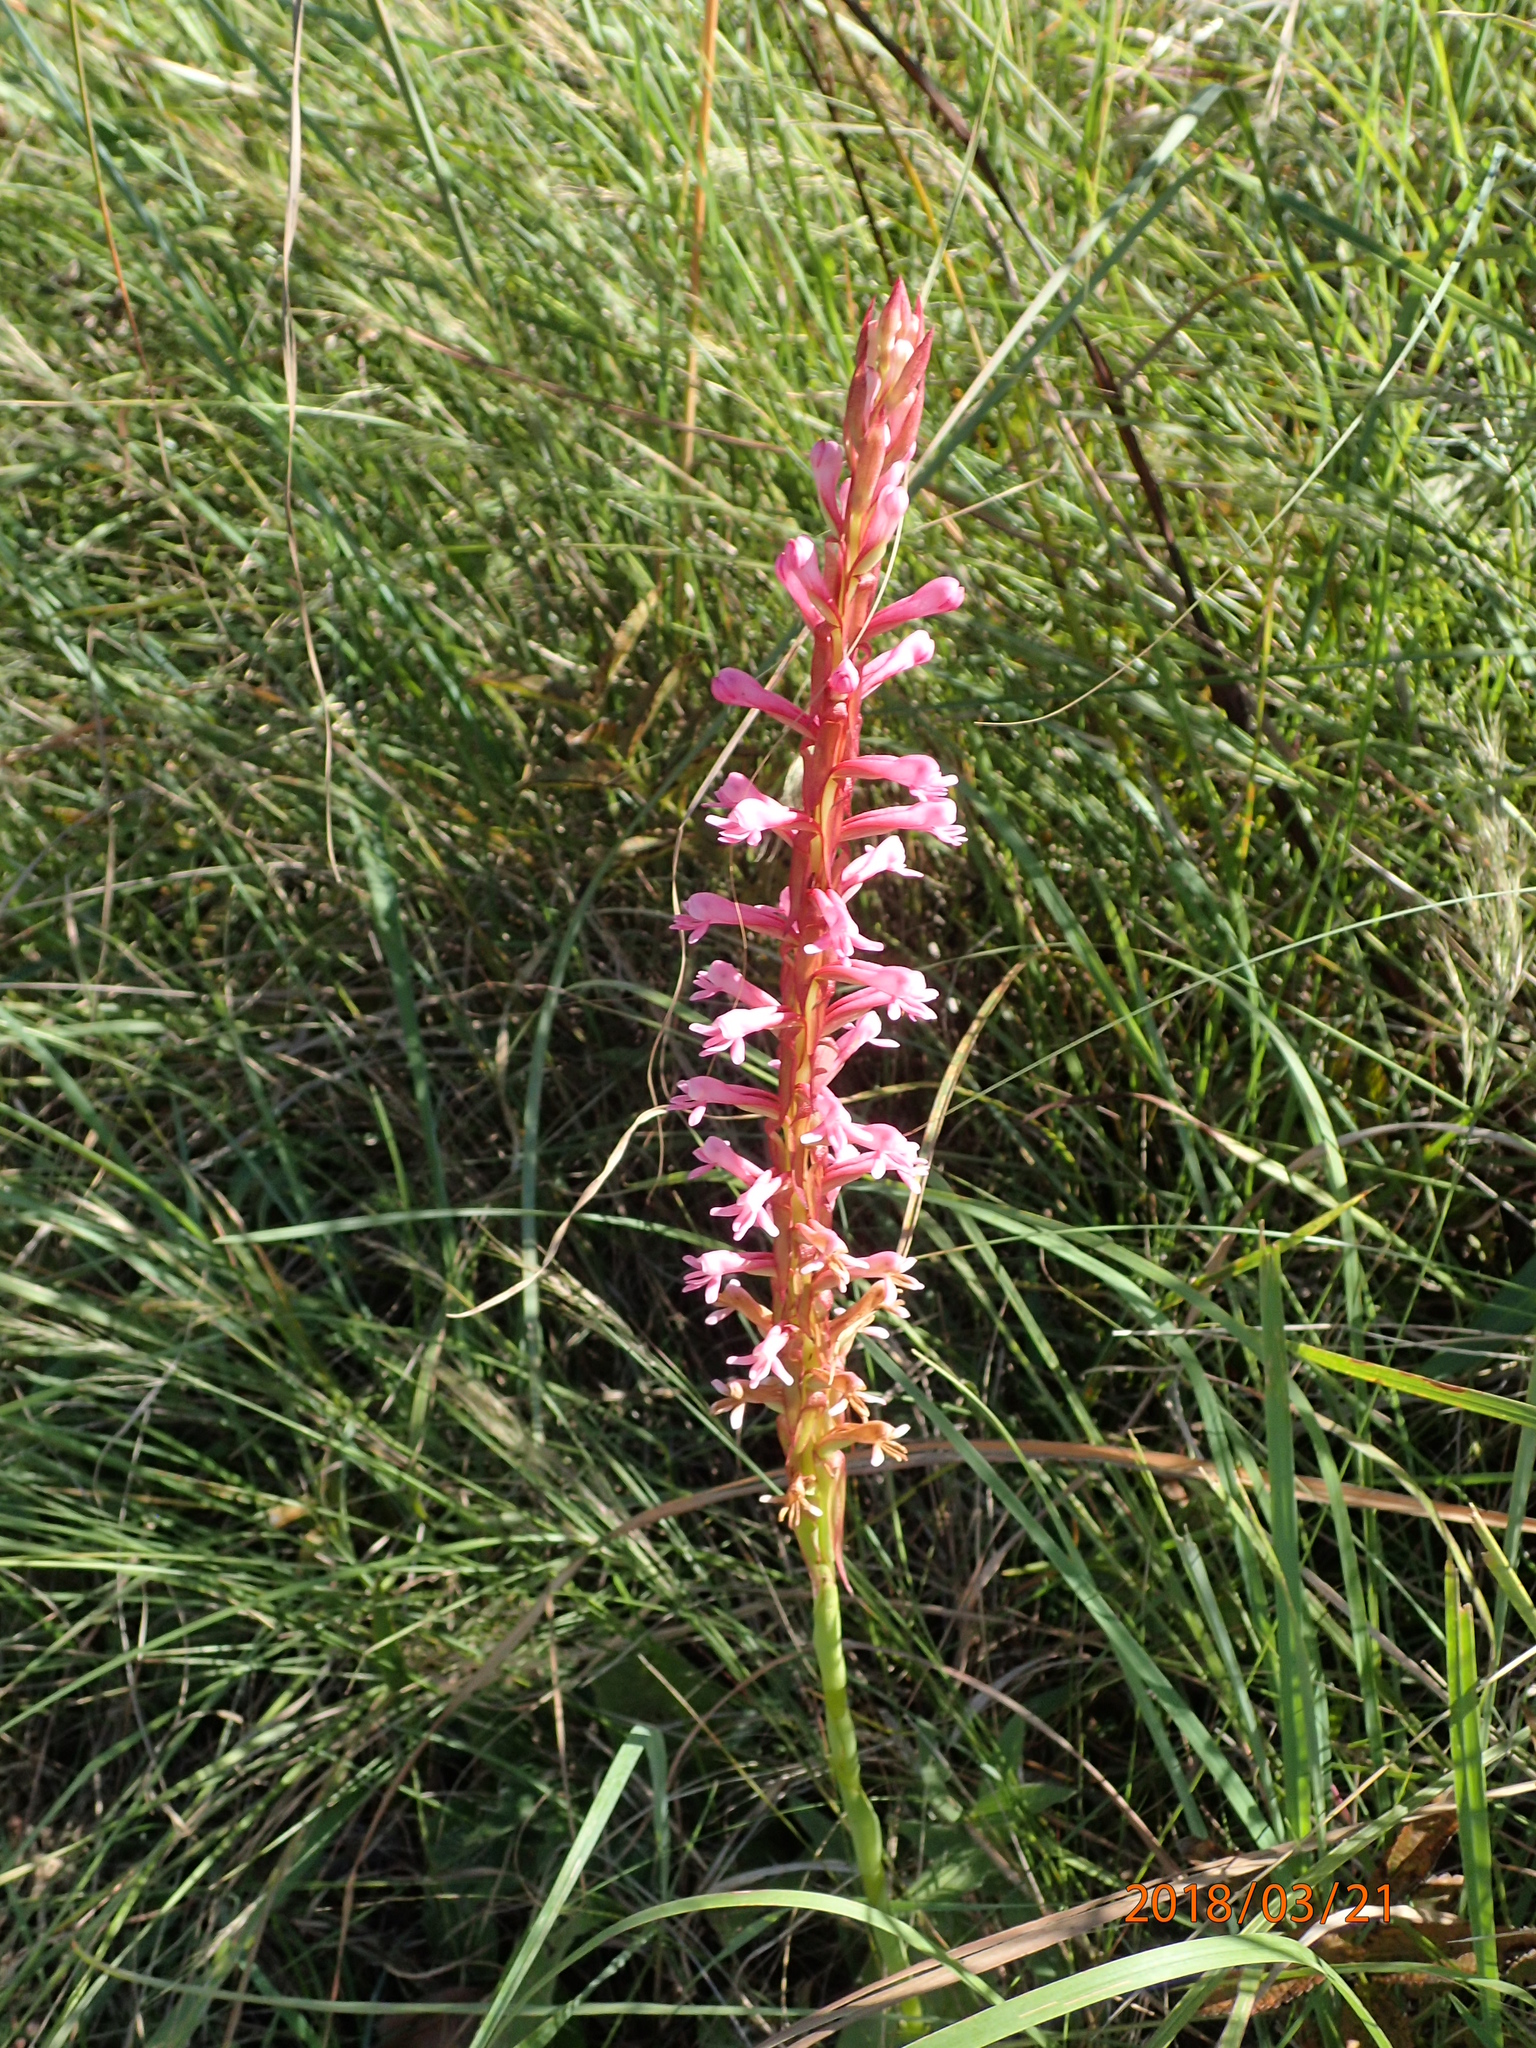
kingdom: Plantae
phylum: Tracheophyta
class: Liliopsida
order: Asparagales
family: Orchidaceae
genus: Satyrium
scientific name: Satyrium macrophyllum
